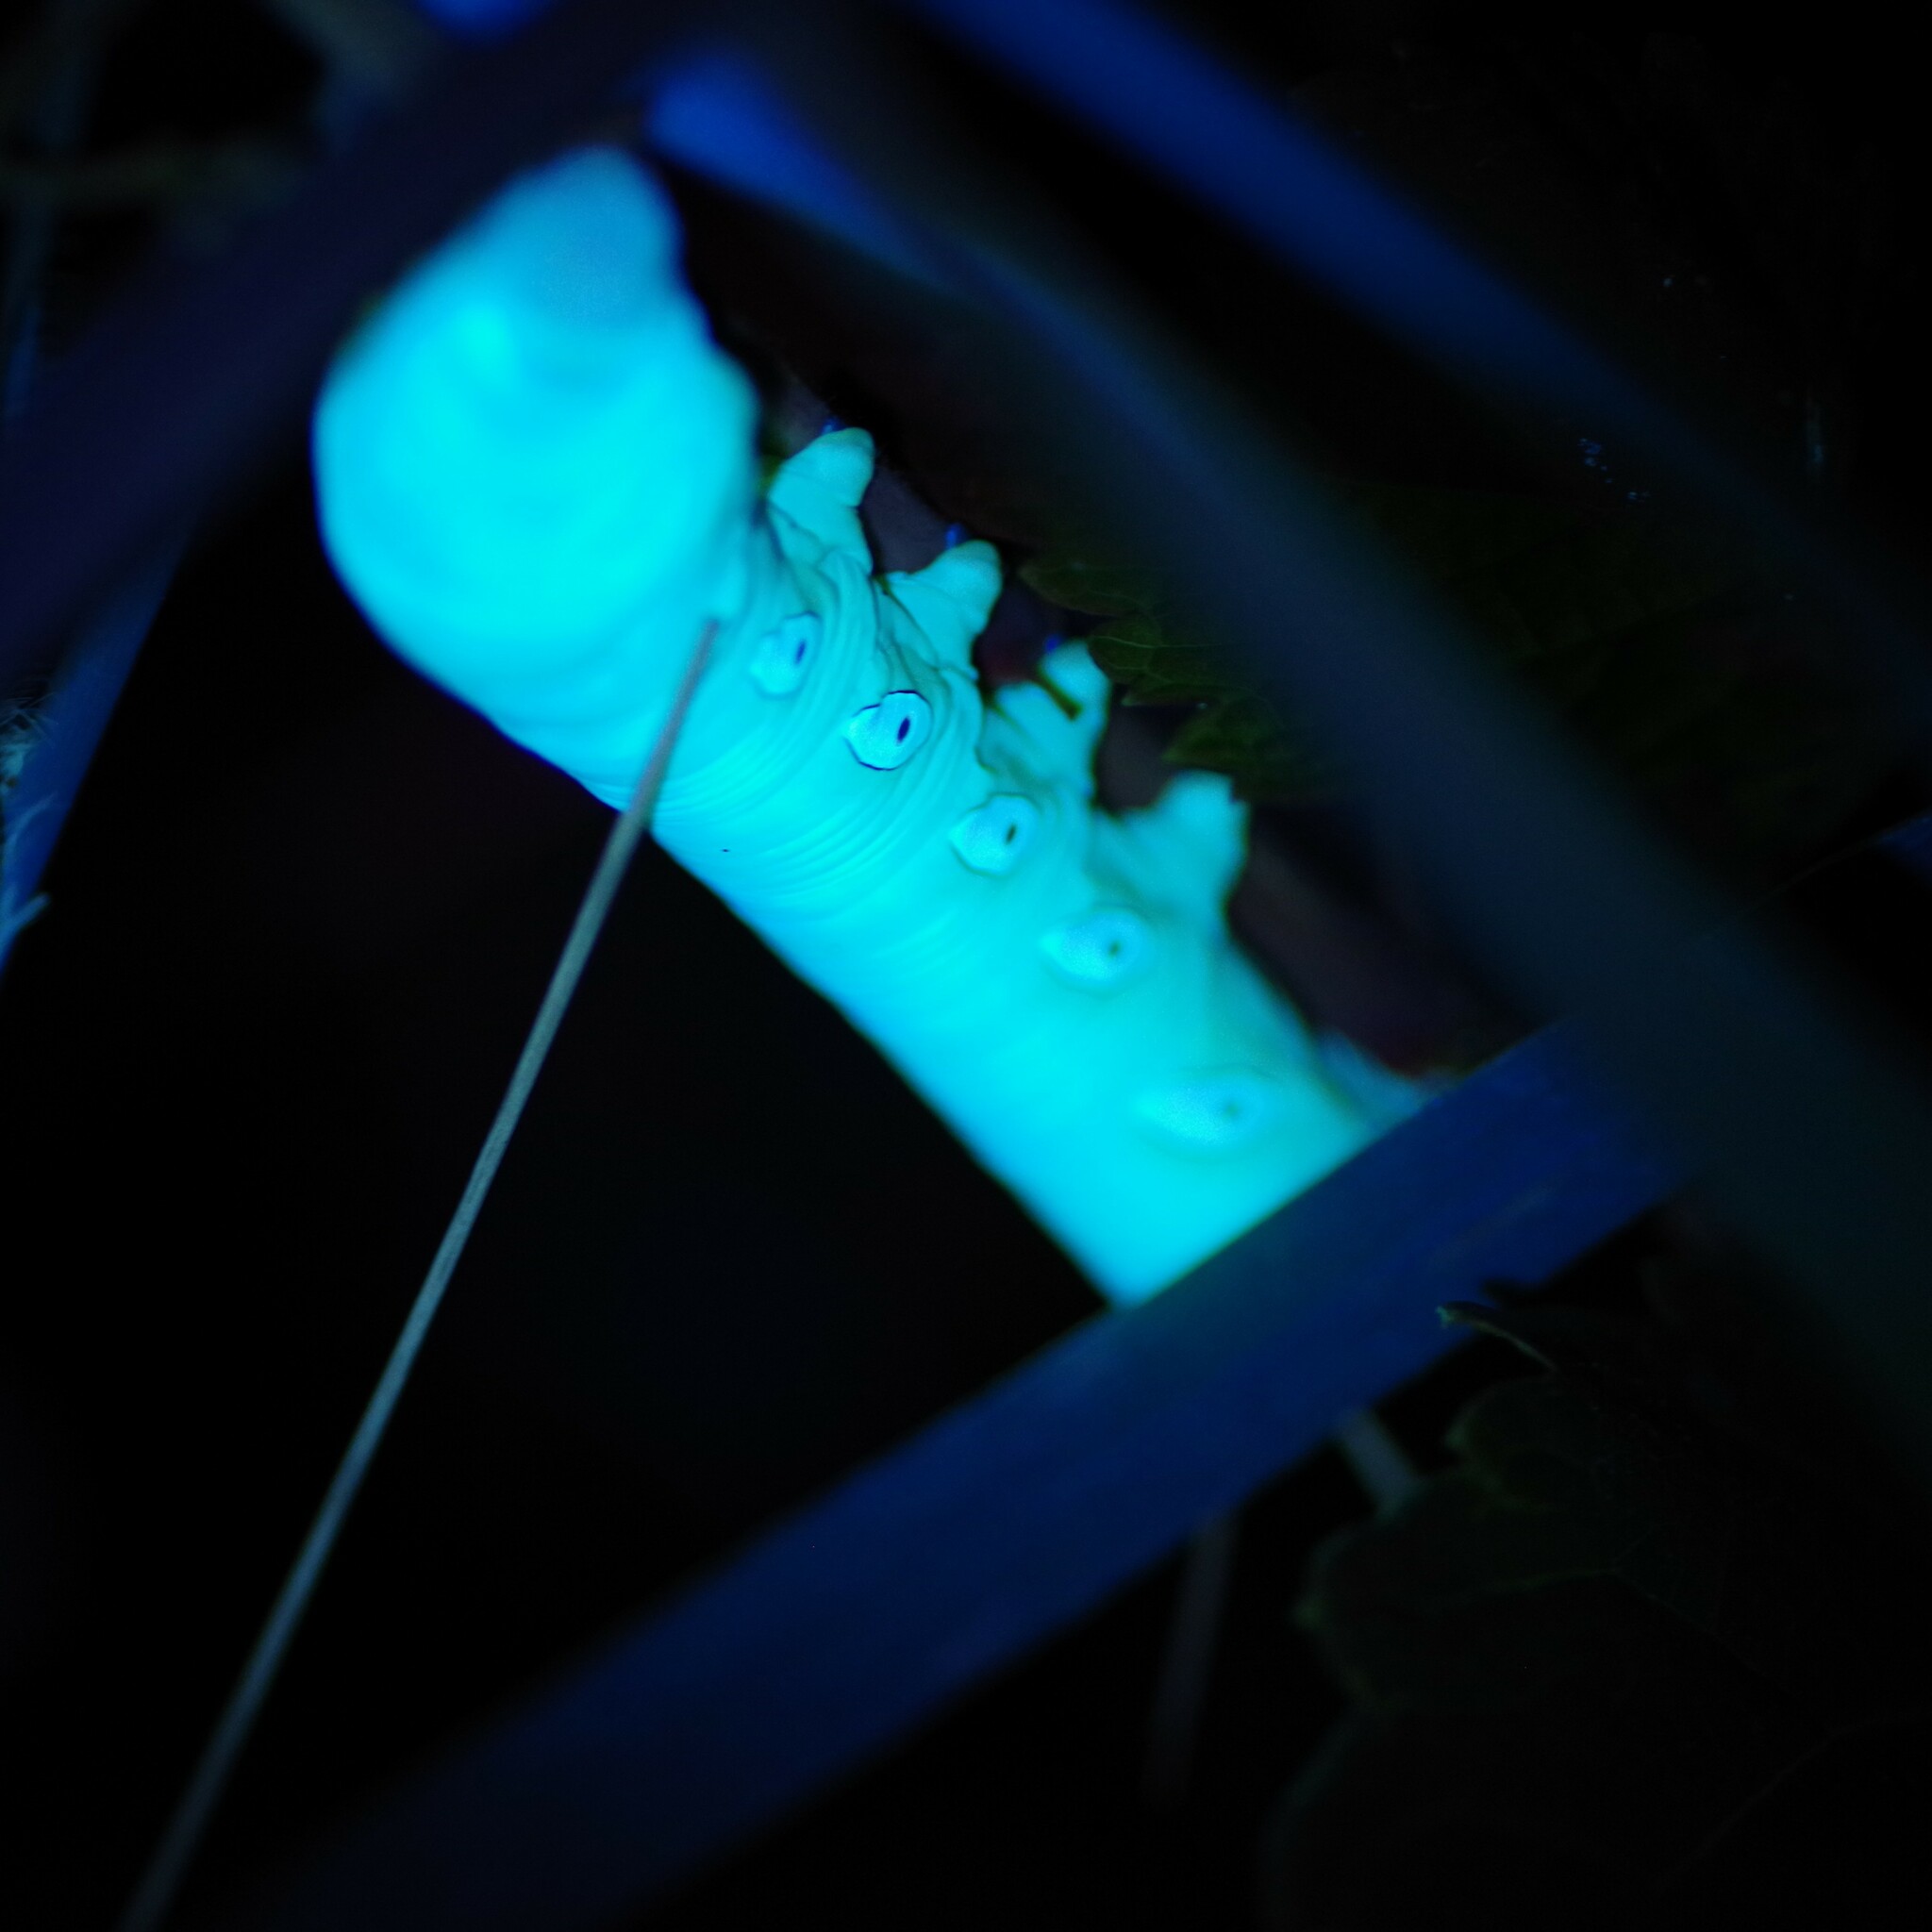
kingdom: Animalia
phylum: Arthropoda
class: Insecta
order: Lepidoptera
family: Sphingidae
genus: Eumorpha
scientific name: Eumorpha pandorus
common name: Pandora sphinx
